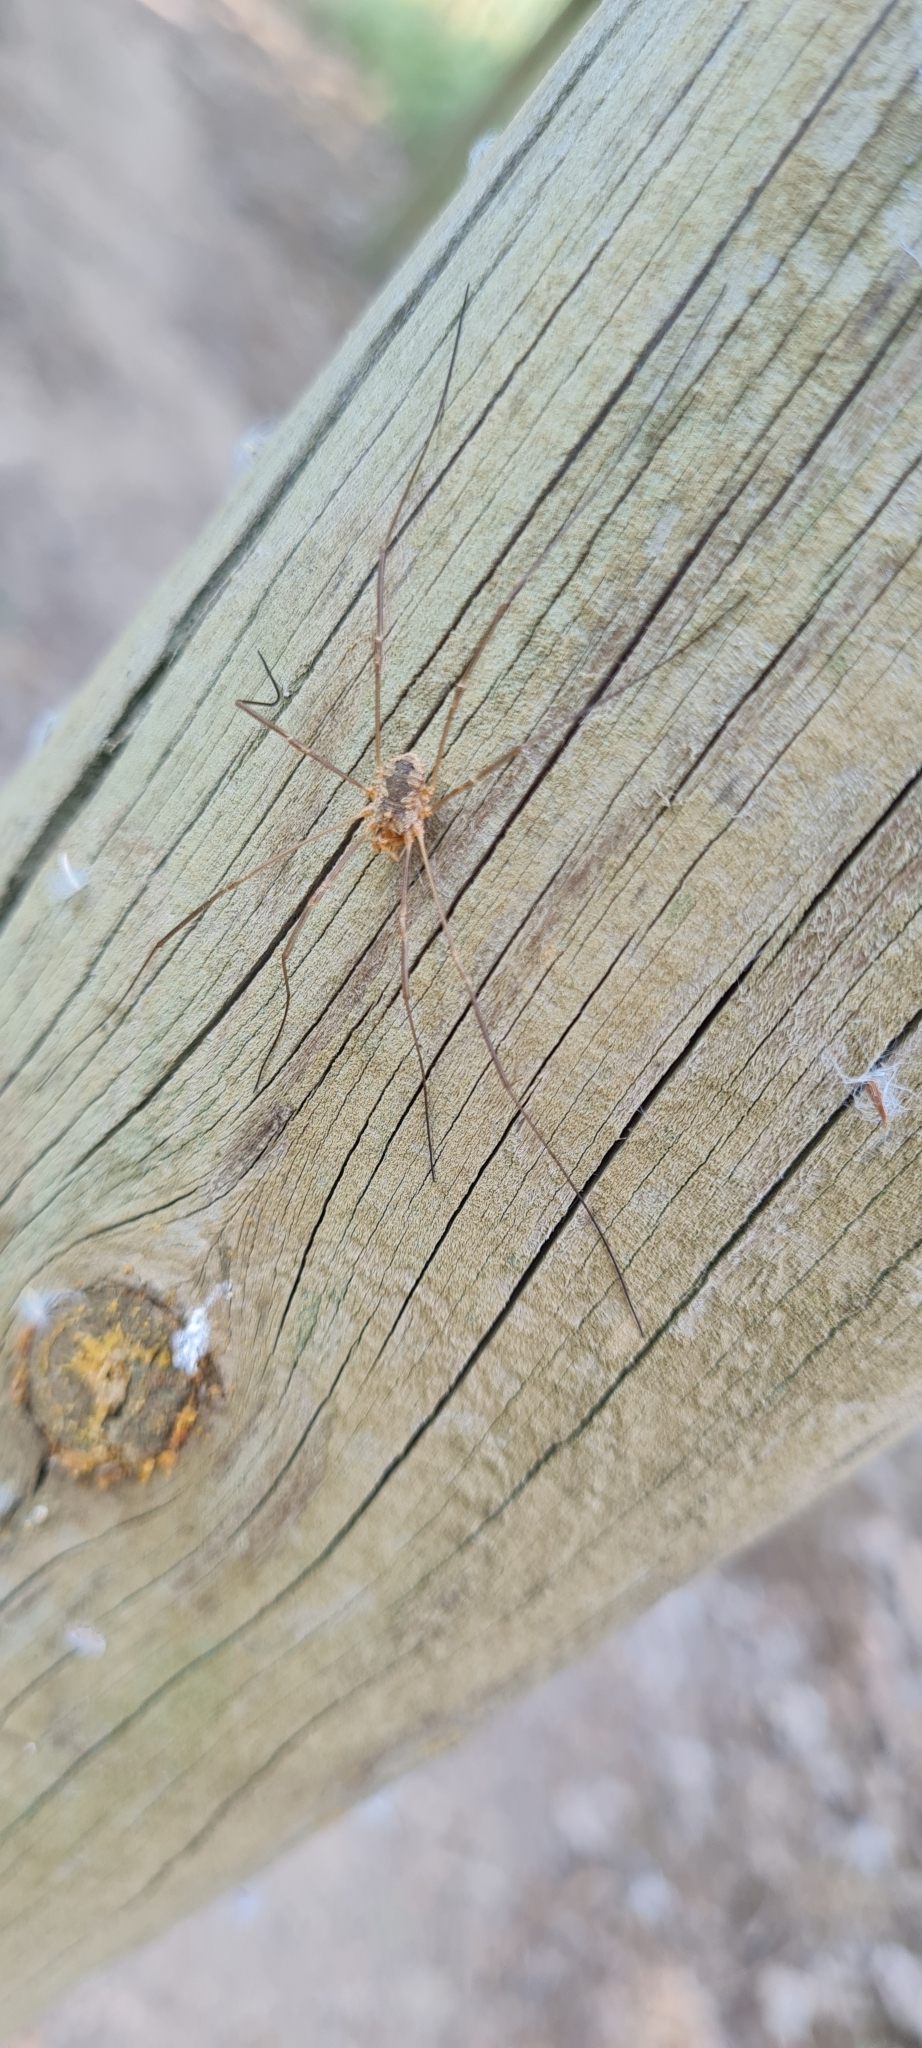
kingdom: Animalia
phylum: Arthropoda
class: Arachnida
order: Opiliones
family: Phalangiidae
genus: Phalangium
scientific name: Phalangium opilio
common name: Daddy longleg
